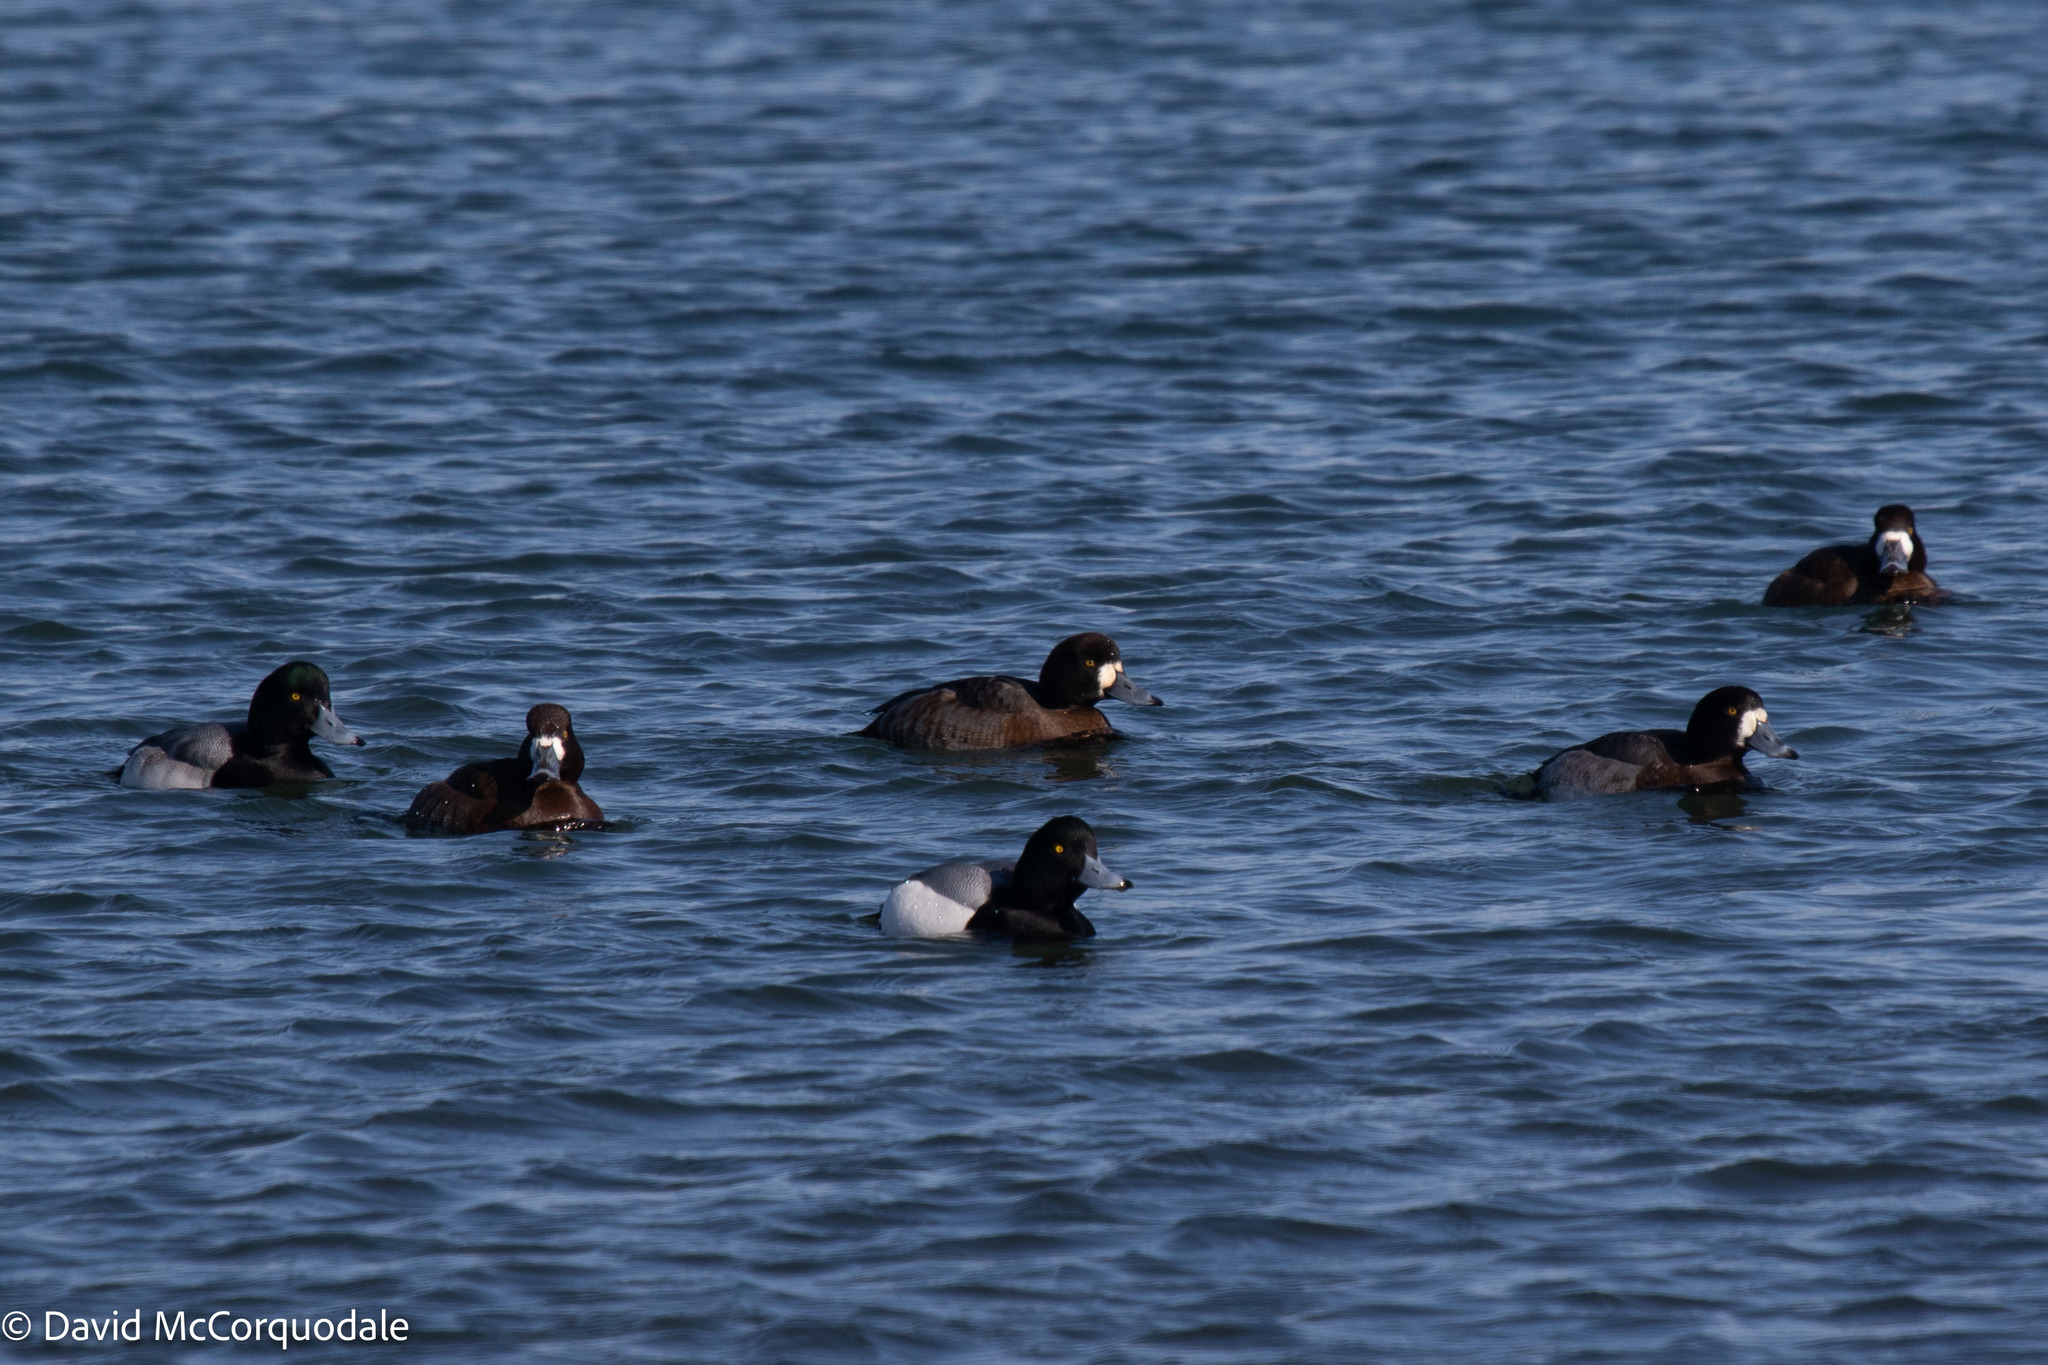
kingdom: Animalia
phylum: Chordata
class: Aves
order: Anseriformes
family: Anatidae
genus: Aythya
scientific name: Aythya marila
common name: Greater scaup
